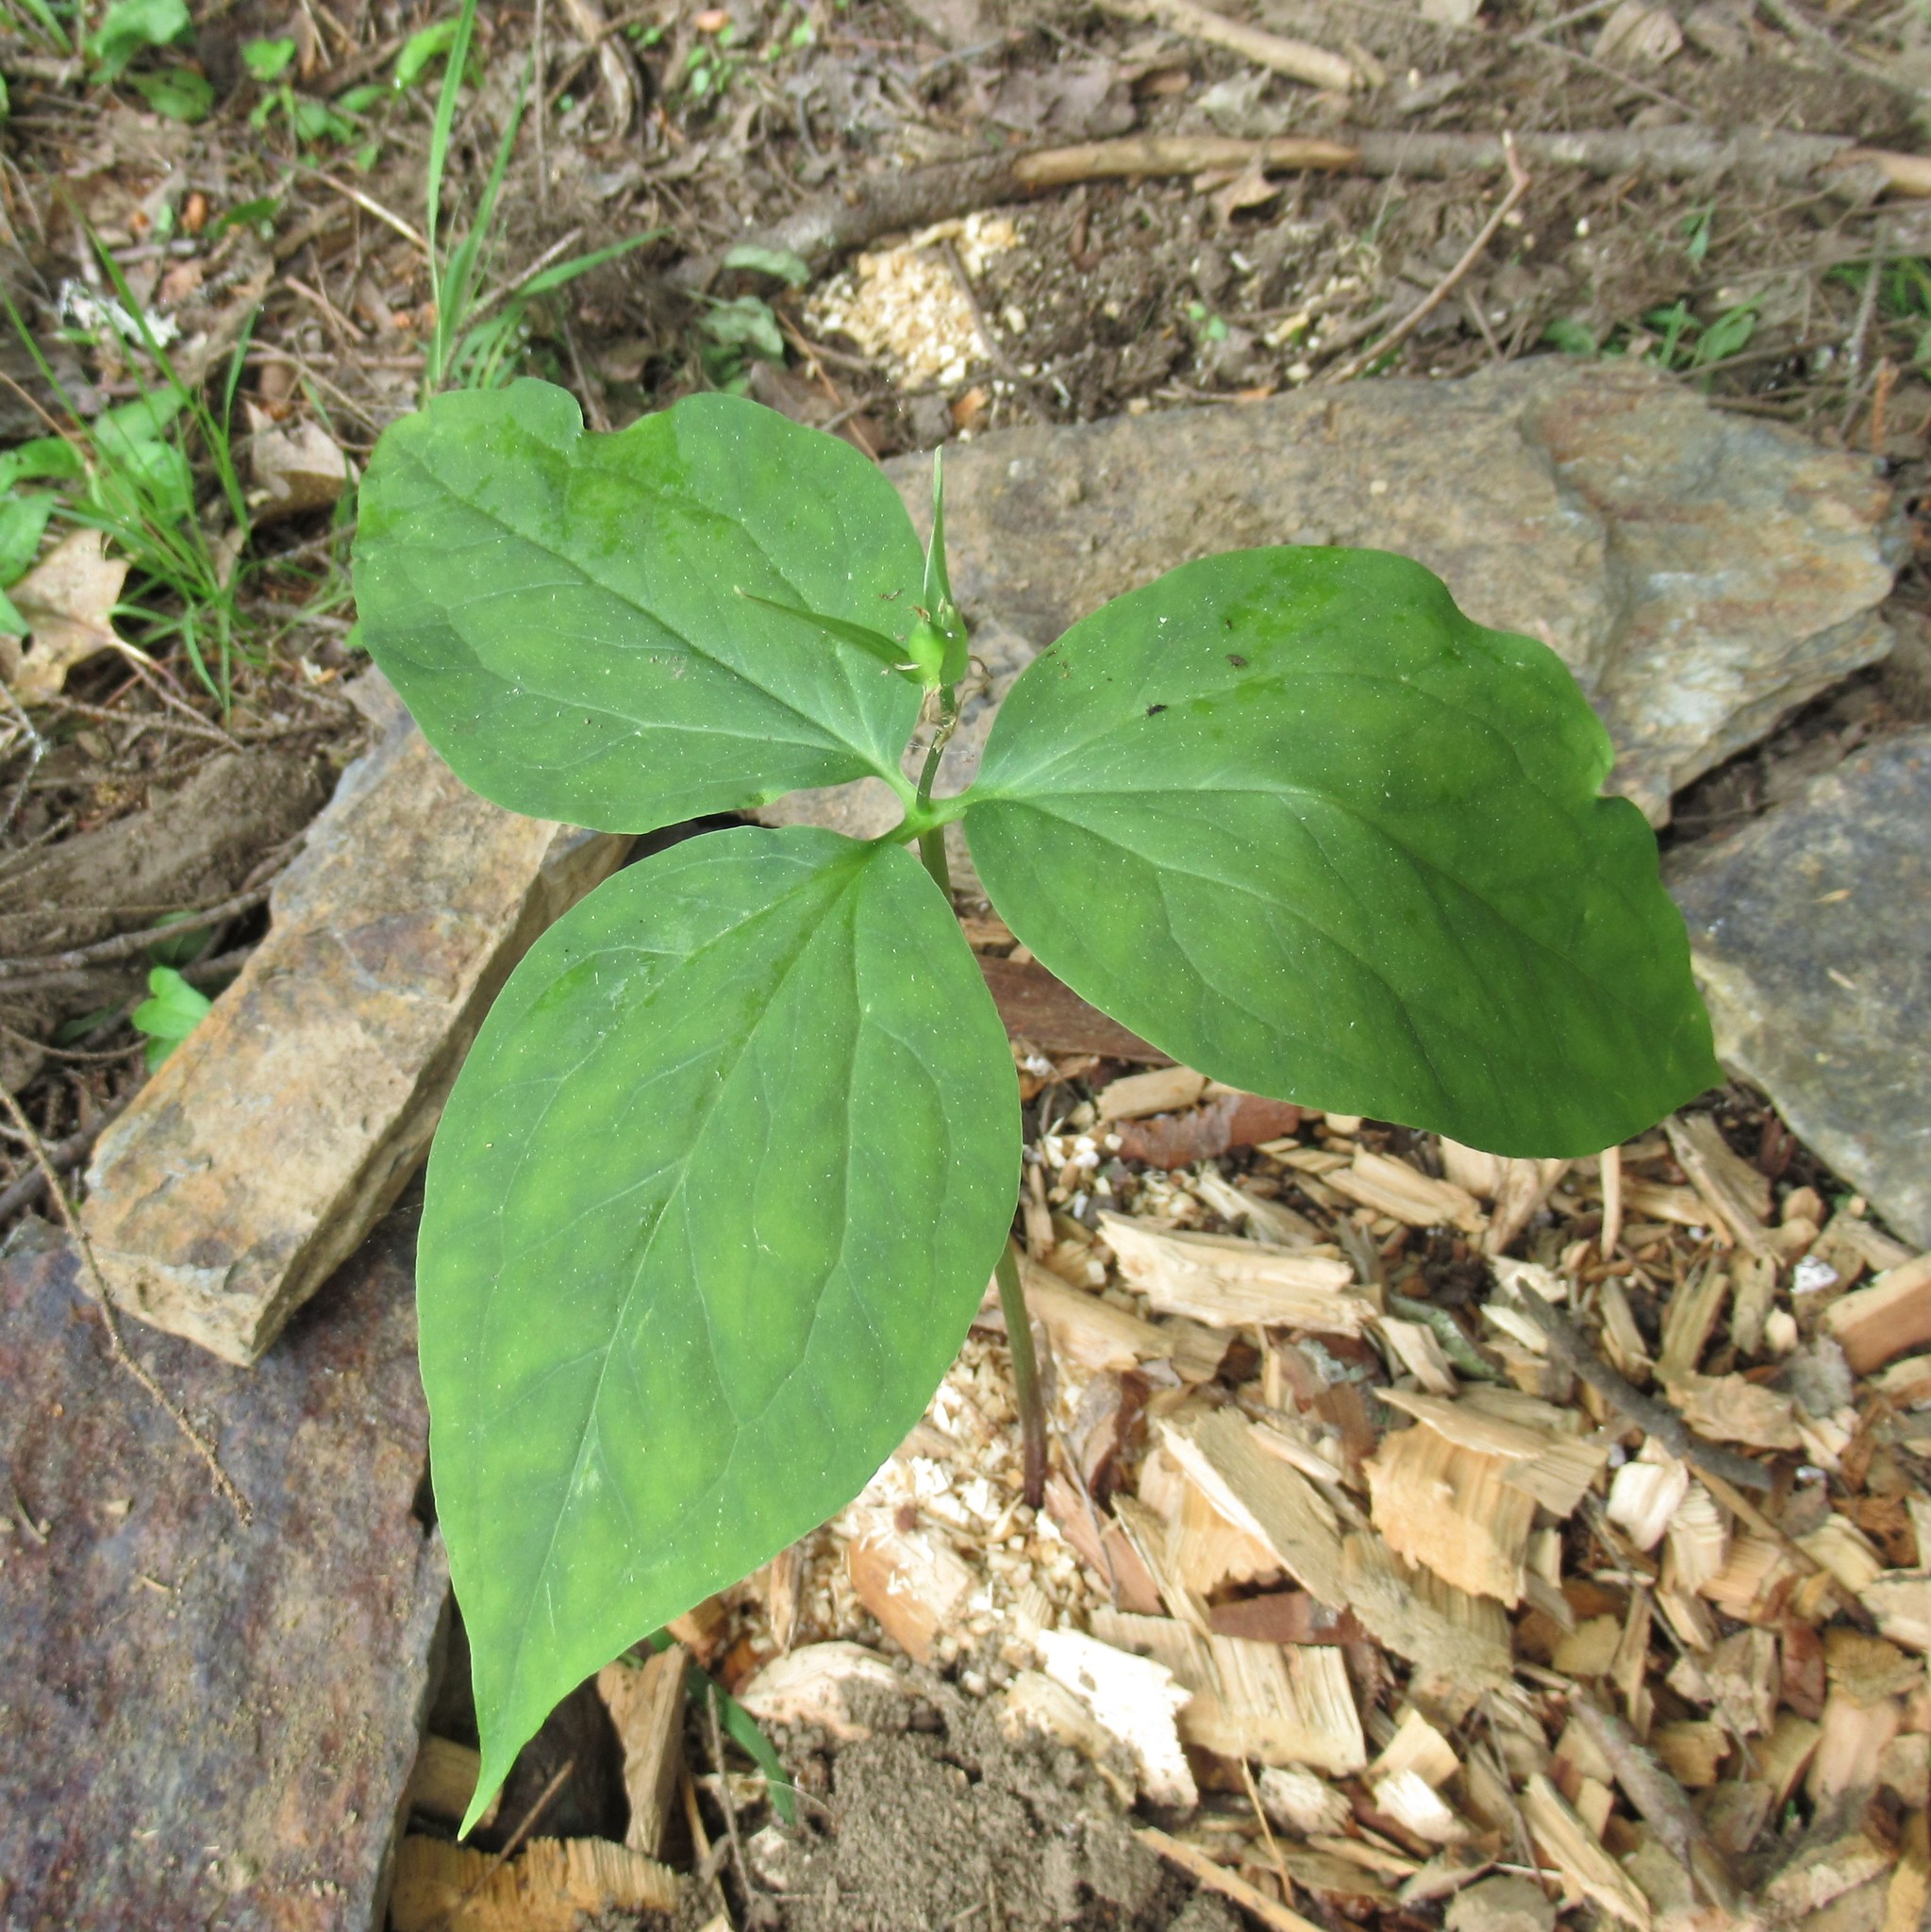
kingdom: Plantae
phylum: Tracheophyta
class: Liliopsida
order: Liliales
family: Melanthiaceae
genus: Trillium
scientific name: Trillium undulatum
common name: Paint trillium
